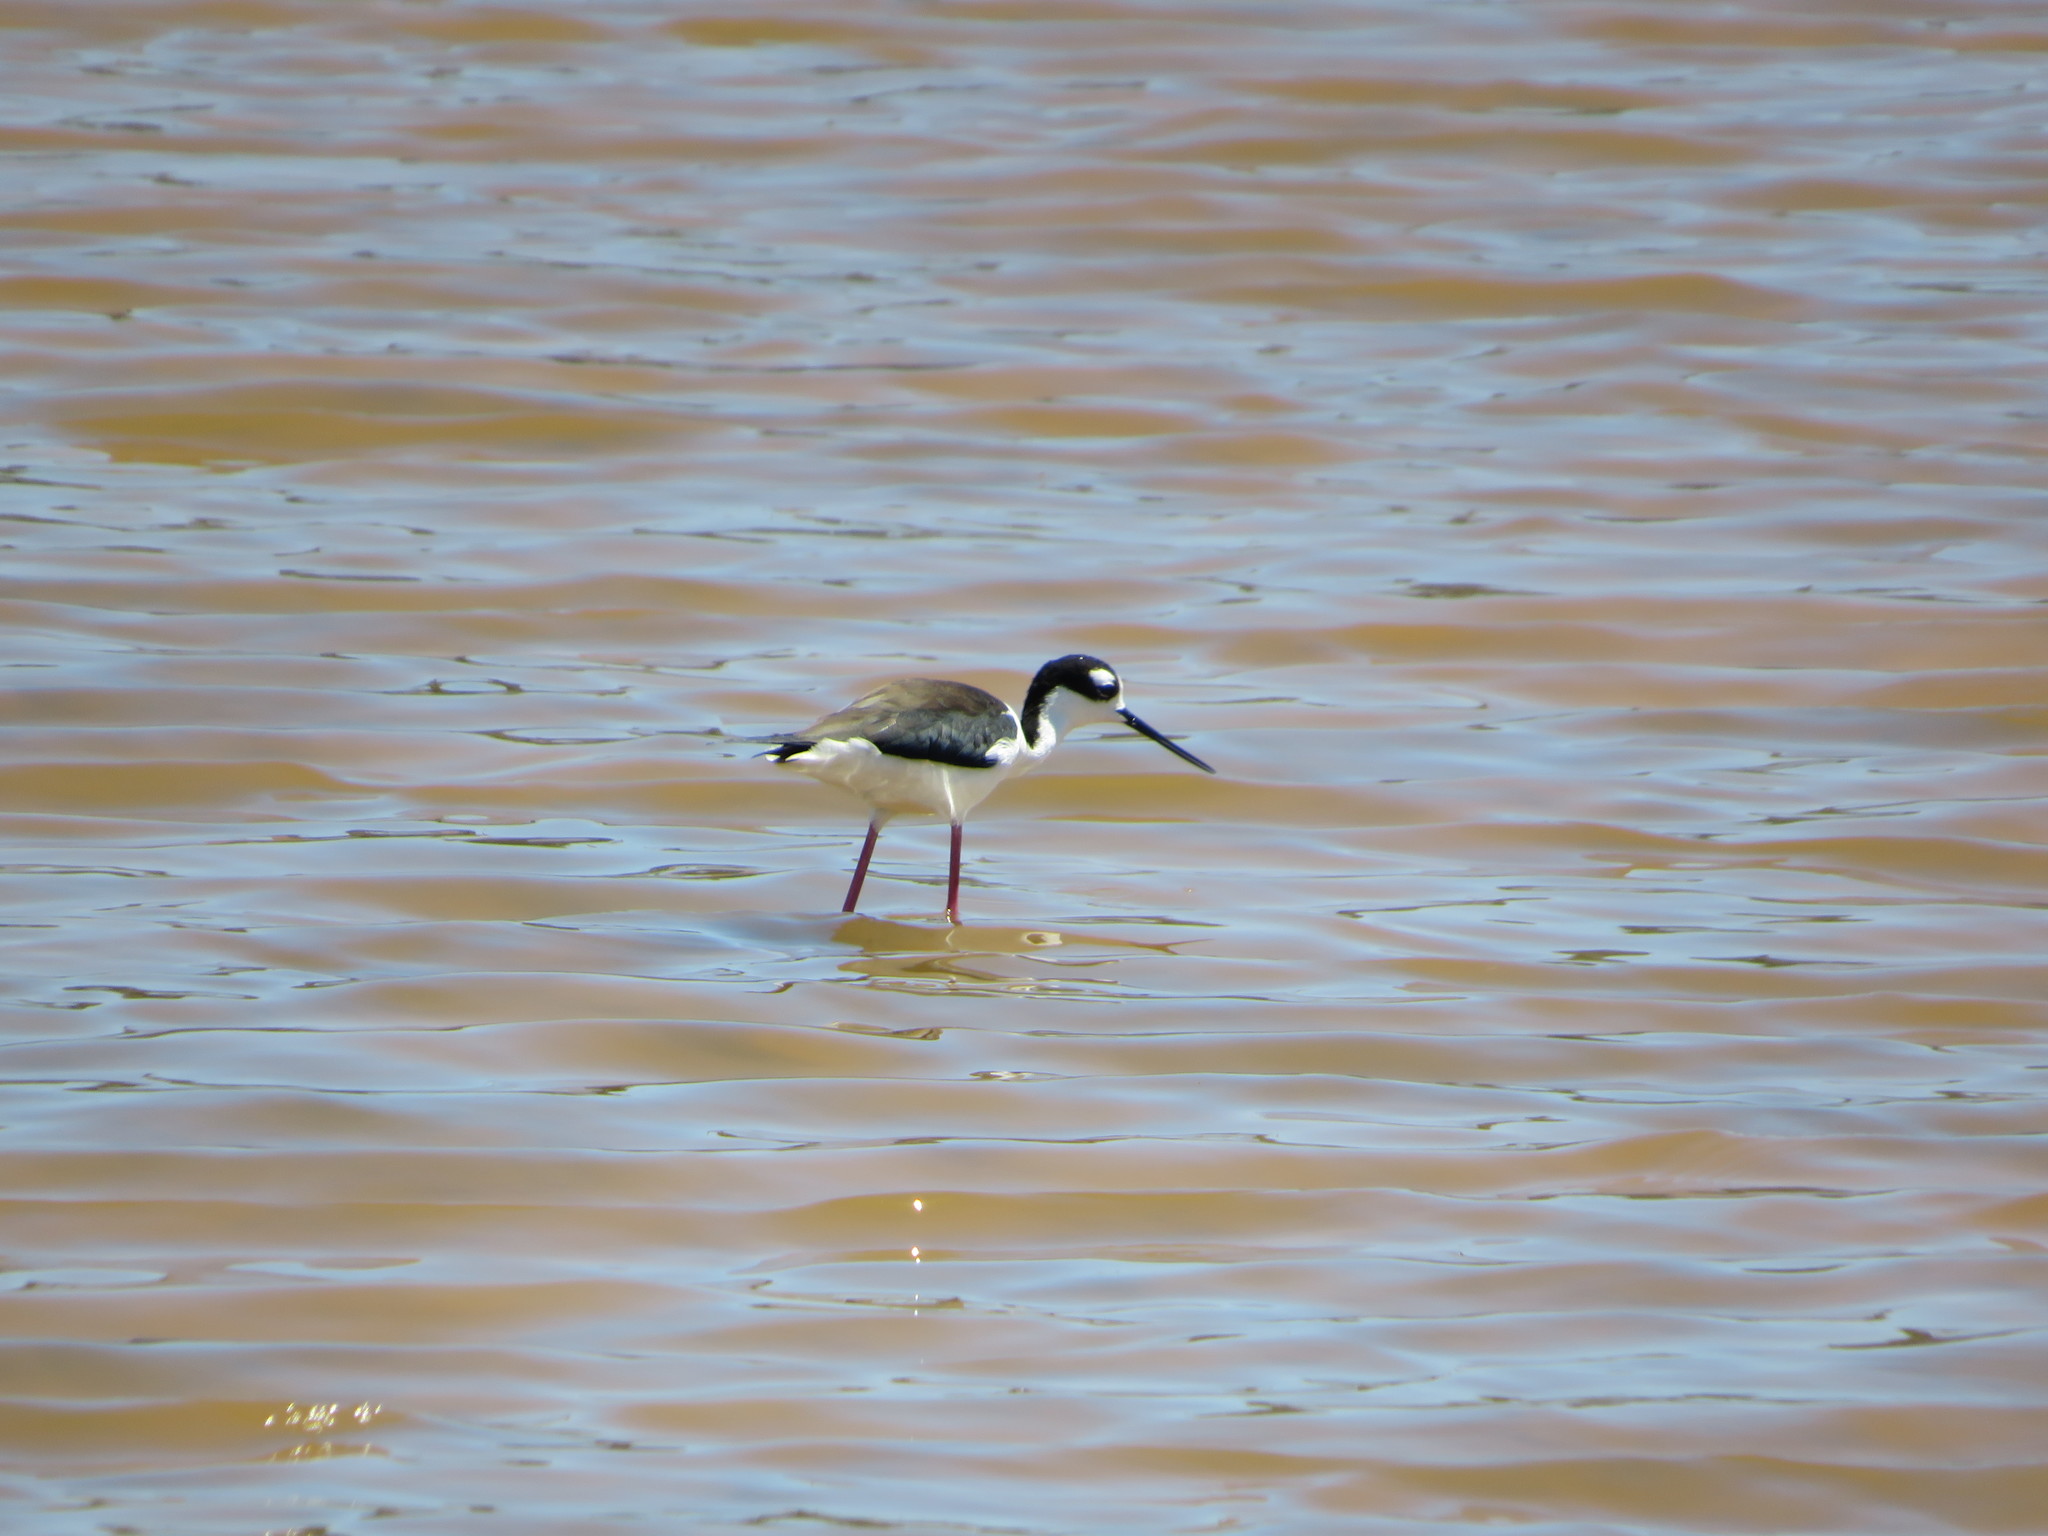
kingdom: Animalia
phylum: Chordata
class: Aves
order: Charadriiformes
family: Recurvirostridae
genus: Himantopus
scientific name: Himantopus mexicanus
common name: Black-necked stilt
